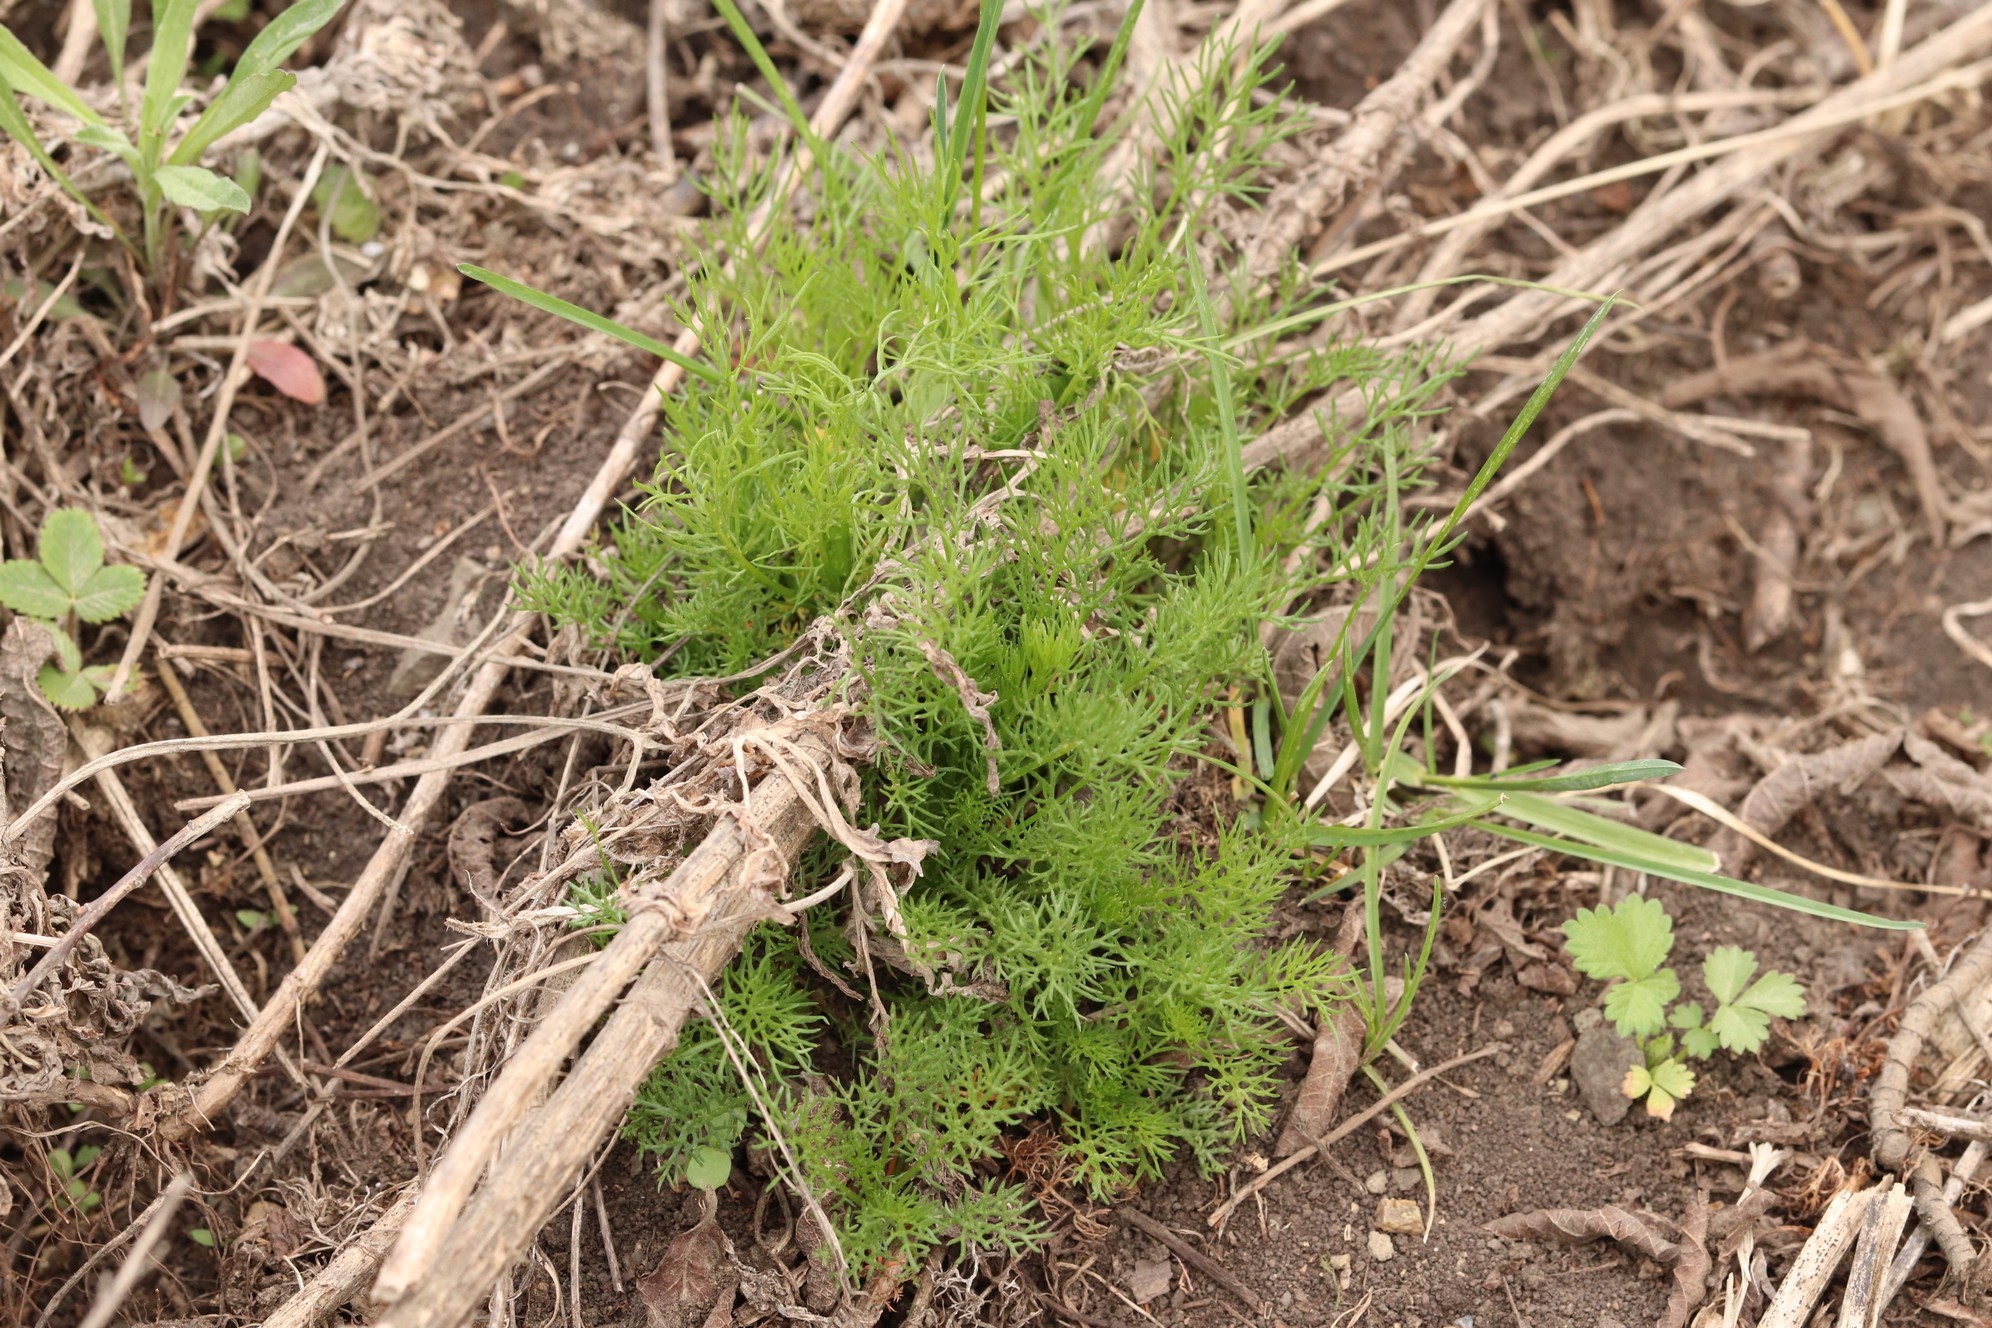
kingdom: Plantae
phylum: Tracheophyta
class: Magnoliopsida
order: Asterales
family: Asteraceae
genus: Tripleurospermum
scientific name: Tripleurospermum inodorum
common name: Scentless mayweed
